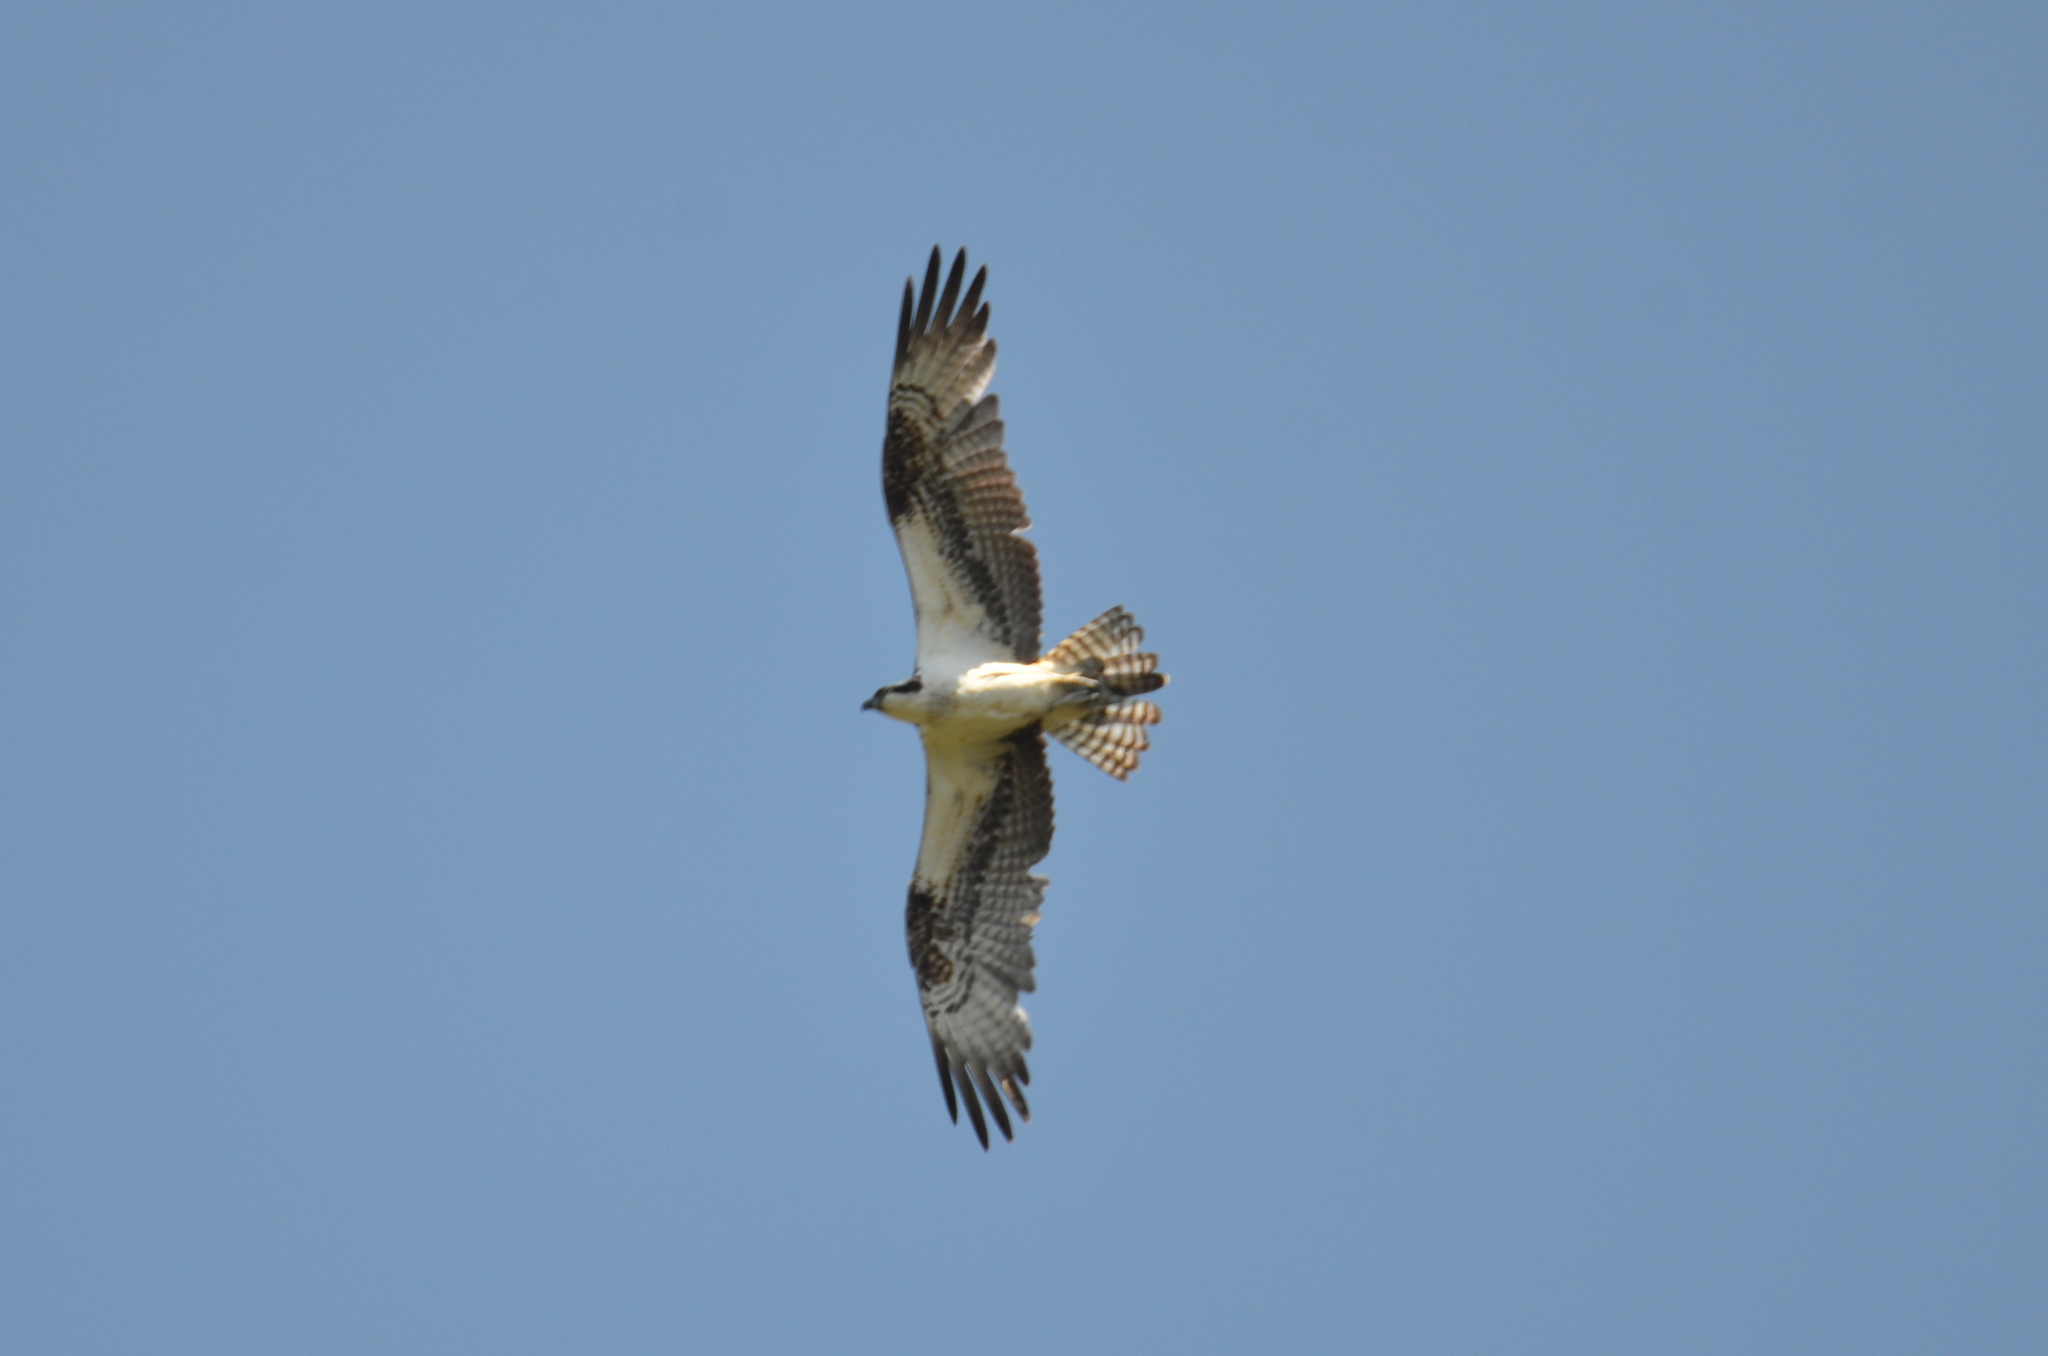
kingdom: Animalia
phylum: Chordata
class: Aves
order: Accipitriformes
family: Pandionidae
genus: Pandion
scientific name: Pandion haliaetus
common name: Osprey
